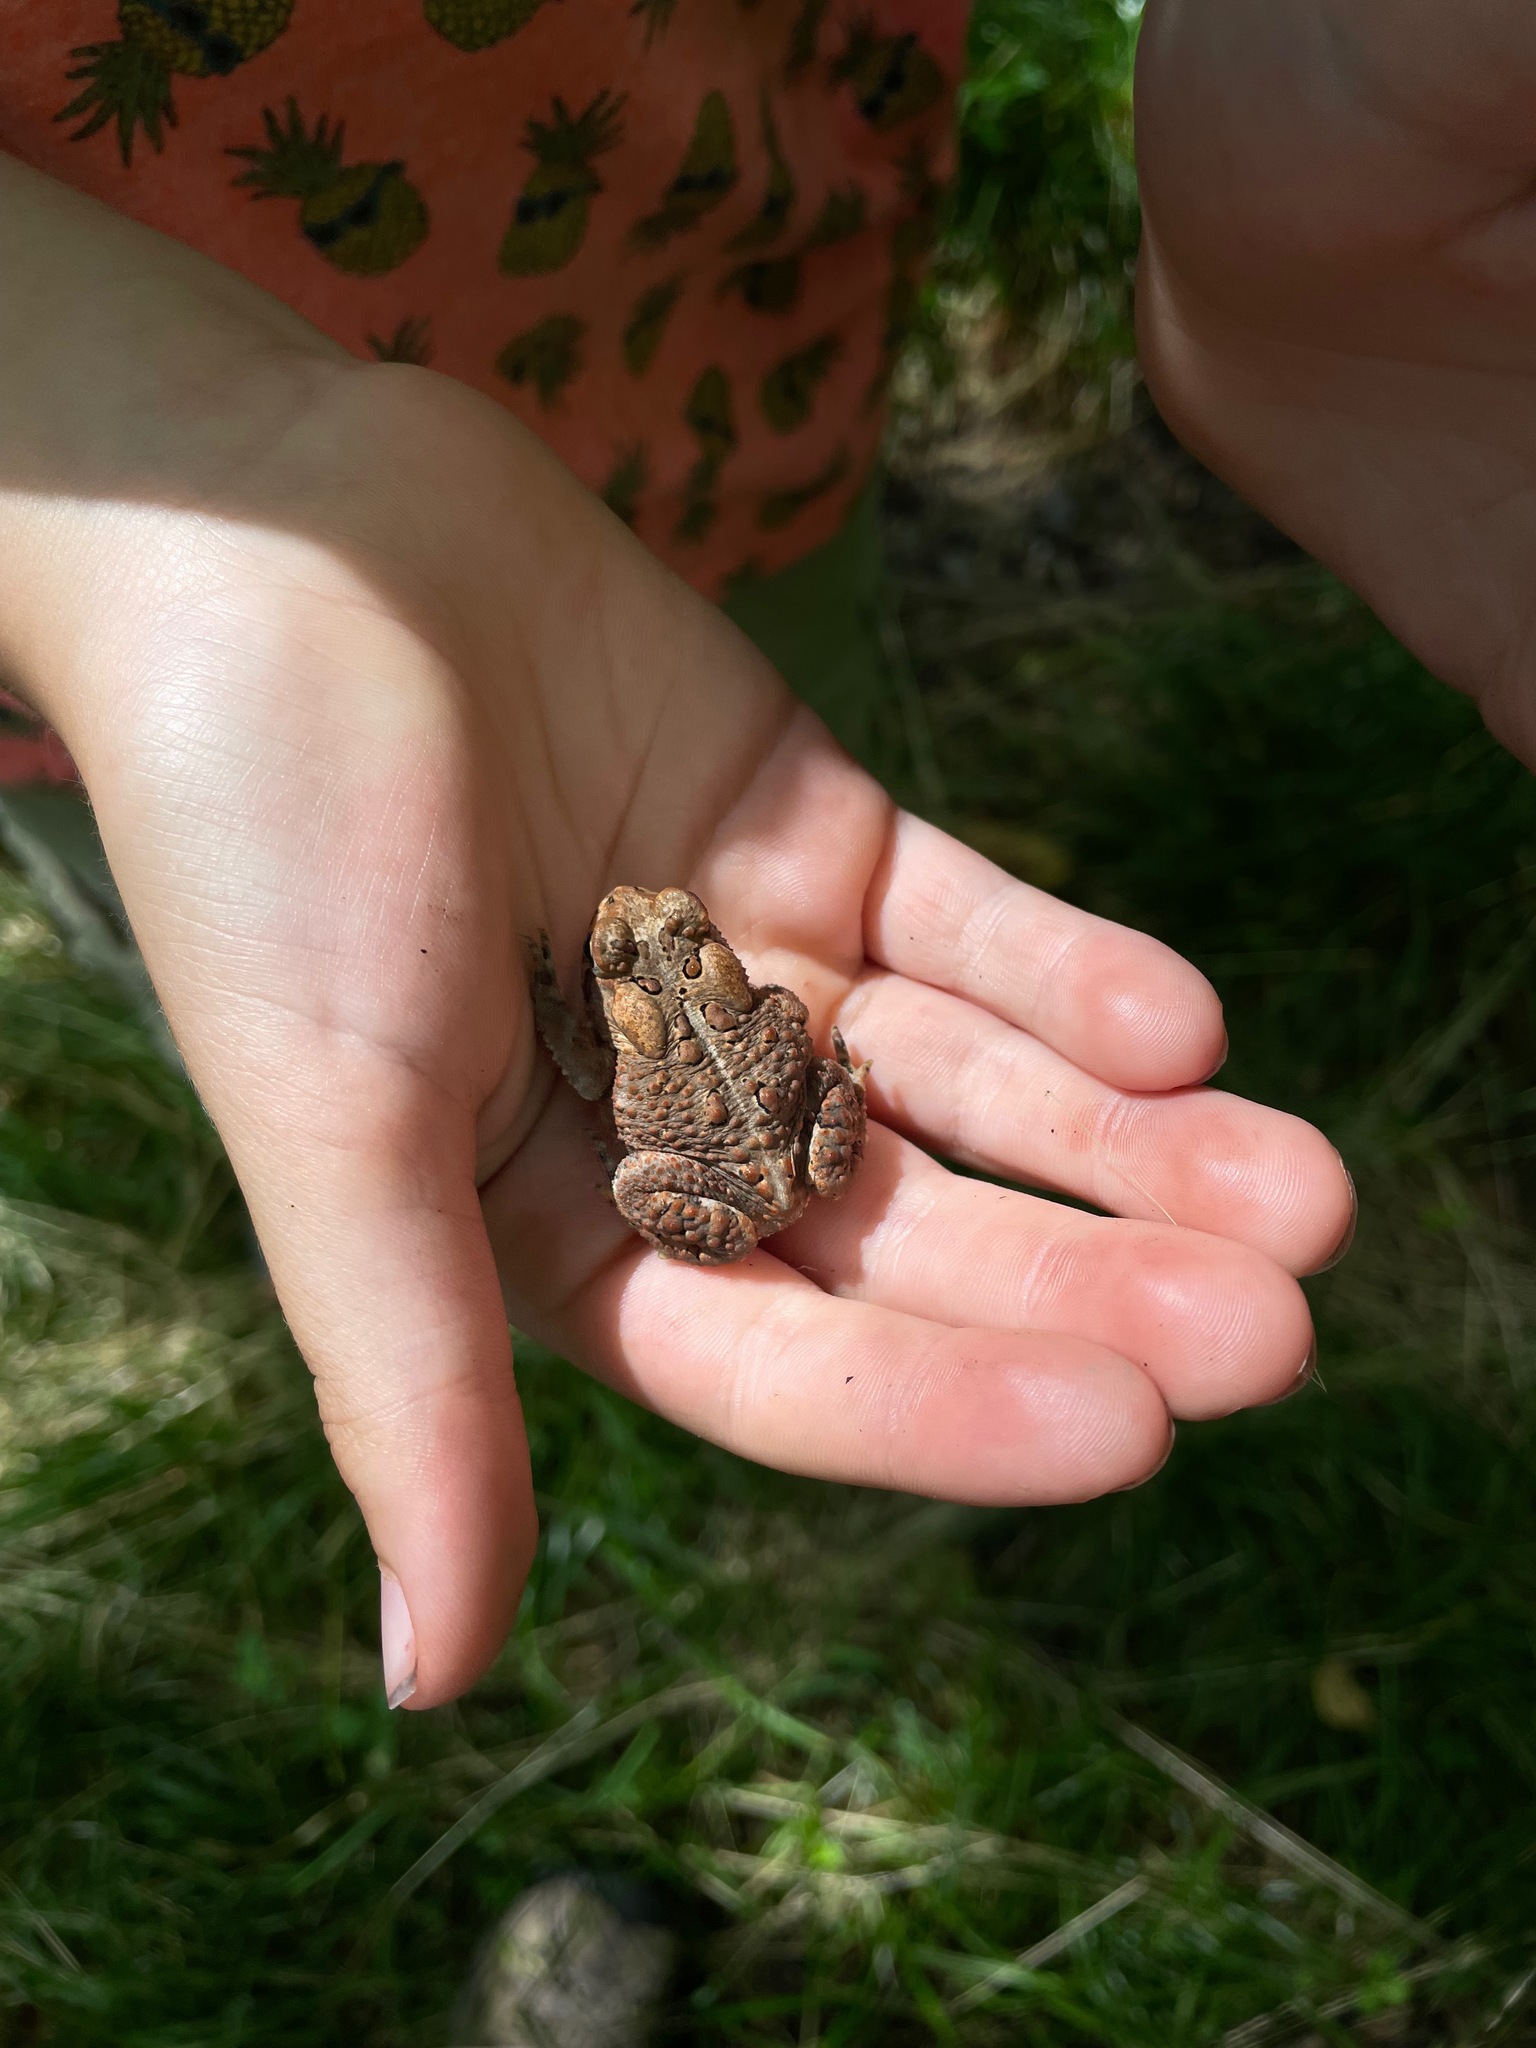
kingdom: Animalia
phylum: Chordata
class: Amphibia
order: Anura
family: Bufonidae
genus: Anaxyrus
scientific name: Anaxyrus americanus
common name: American toad
